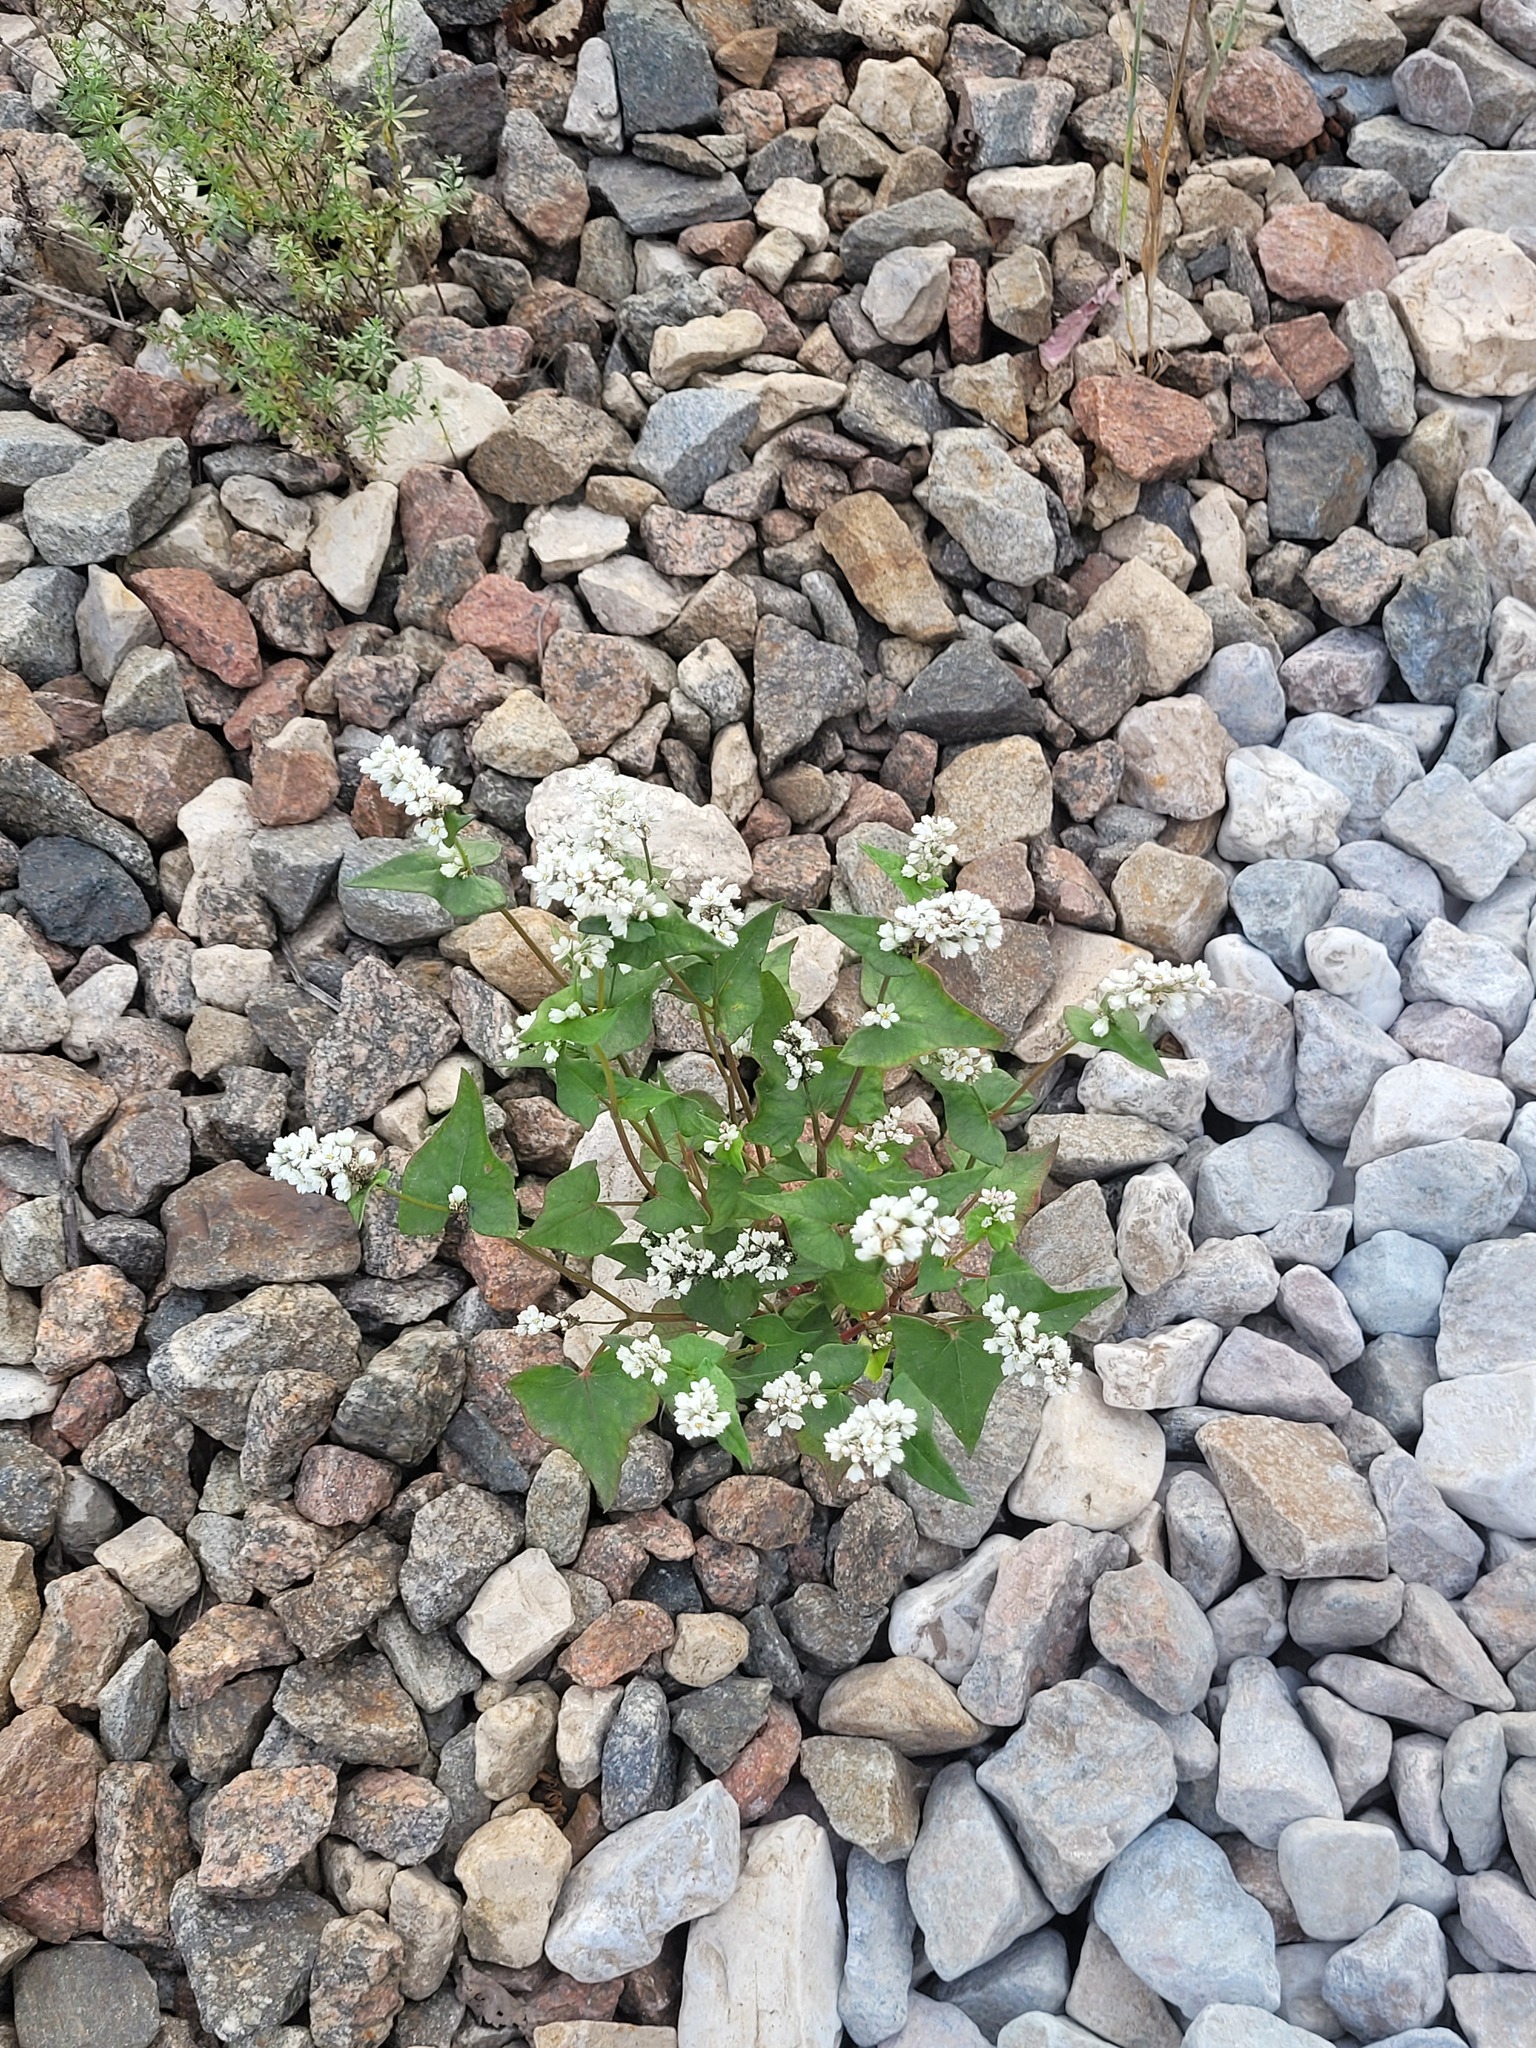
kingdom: Plantae
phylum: Tracheophyta
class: Magnoliopsida
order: Caryophyllales
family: Polygonaceae
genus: Fagopyrum
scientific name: Fagopyrum esculentum
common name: Buckwheat
